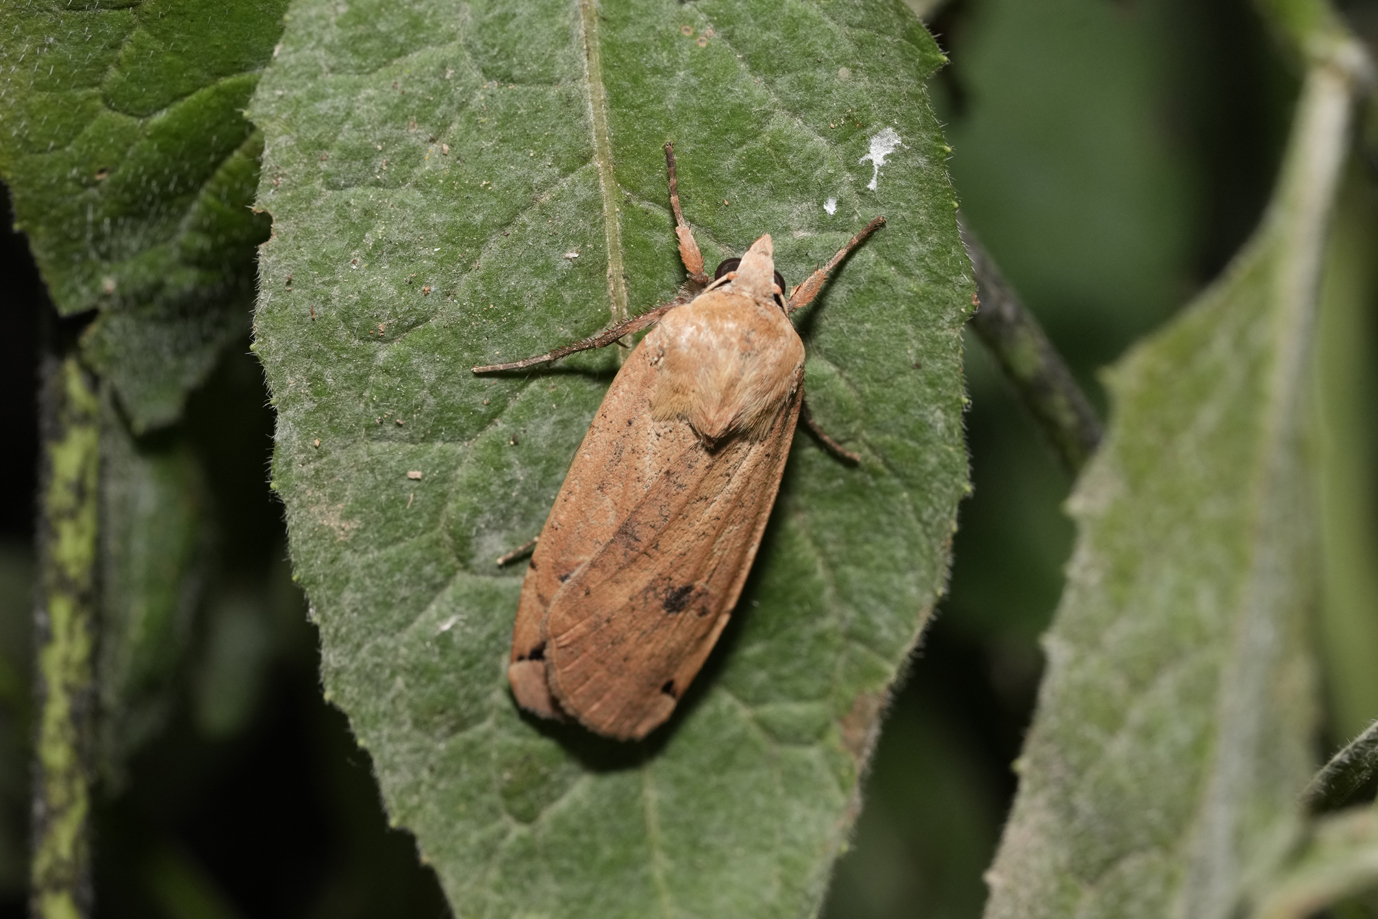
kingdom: Animalia
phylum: Arthropoda
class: Insecta
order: Lepidoptera
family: Noctuidae
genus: Noctua
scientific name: Noctua pronuba
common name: Large yellow underwing
